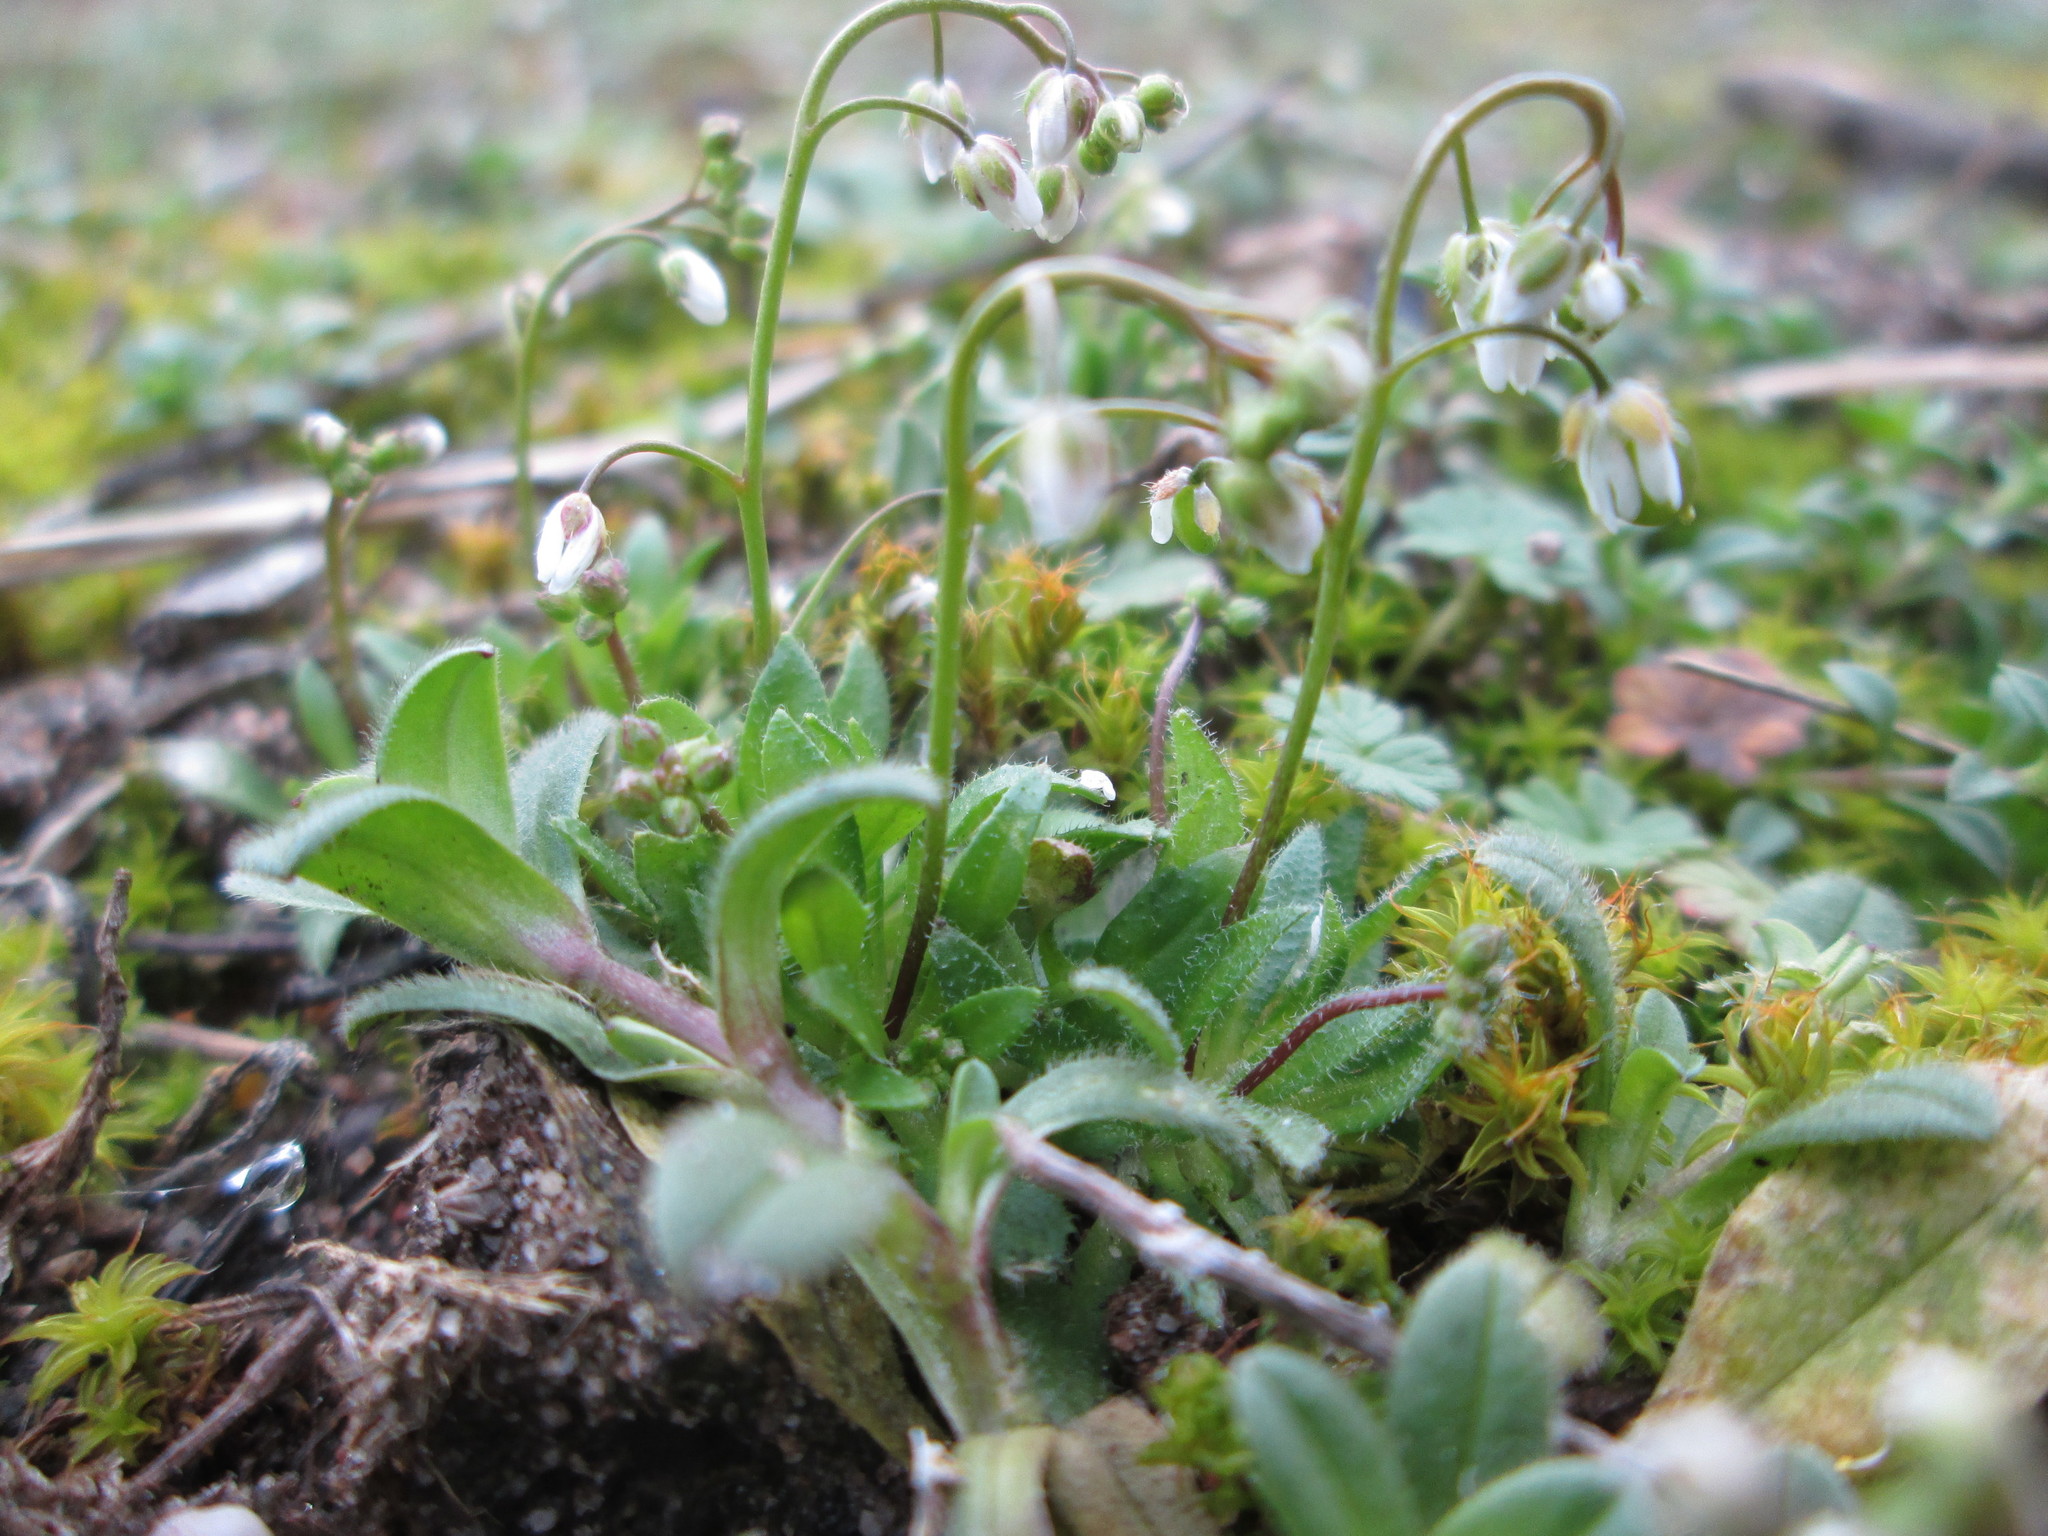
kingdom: Plantae
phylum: Tracheophyta
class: Magnoliopsida
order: Brassicales
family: Brassicaceae
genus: Draba
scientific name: Draba verna
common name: Spring draba
